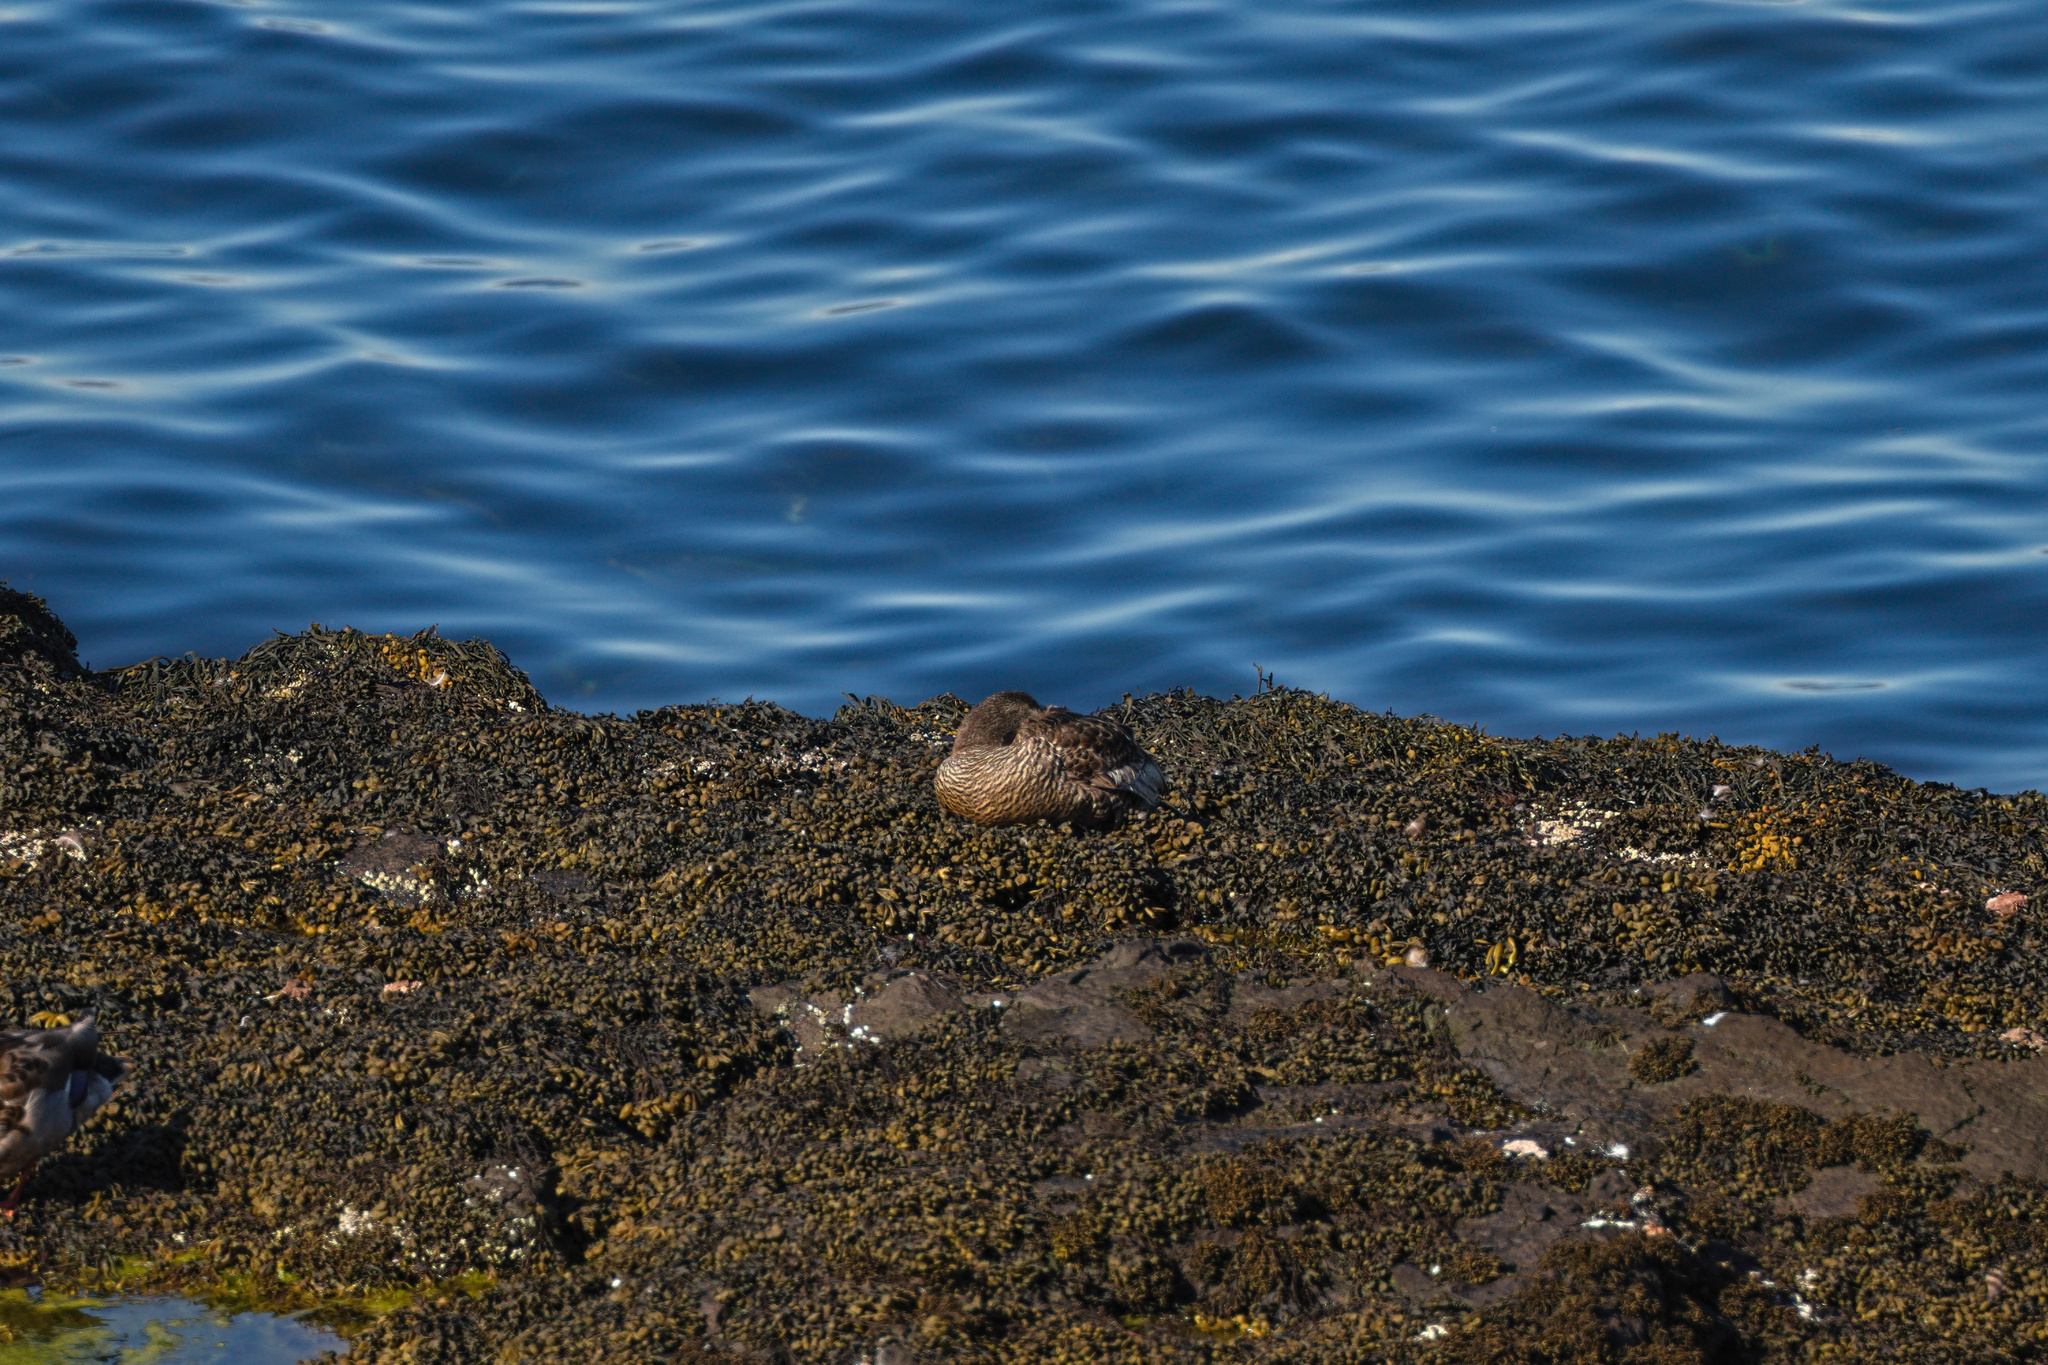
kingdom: Animalia
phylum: Chordata
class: Aves
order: Anseriformes
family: Anatidae
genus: Somateria
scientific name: Somateria mollissima
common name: Common eider
